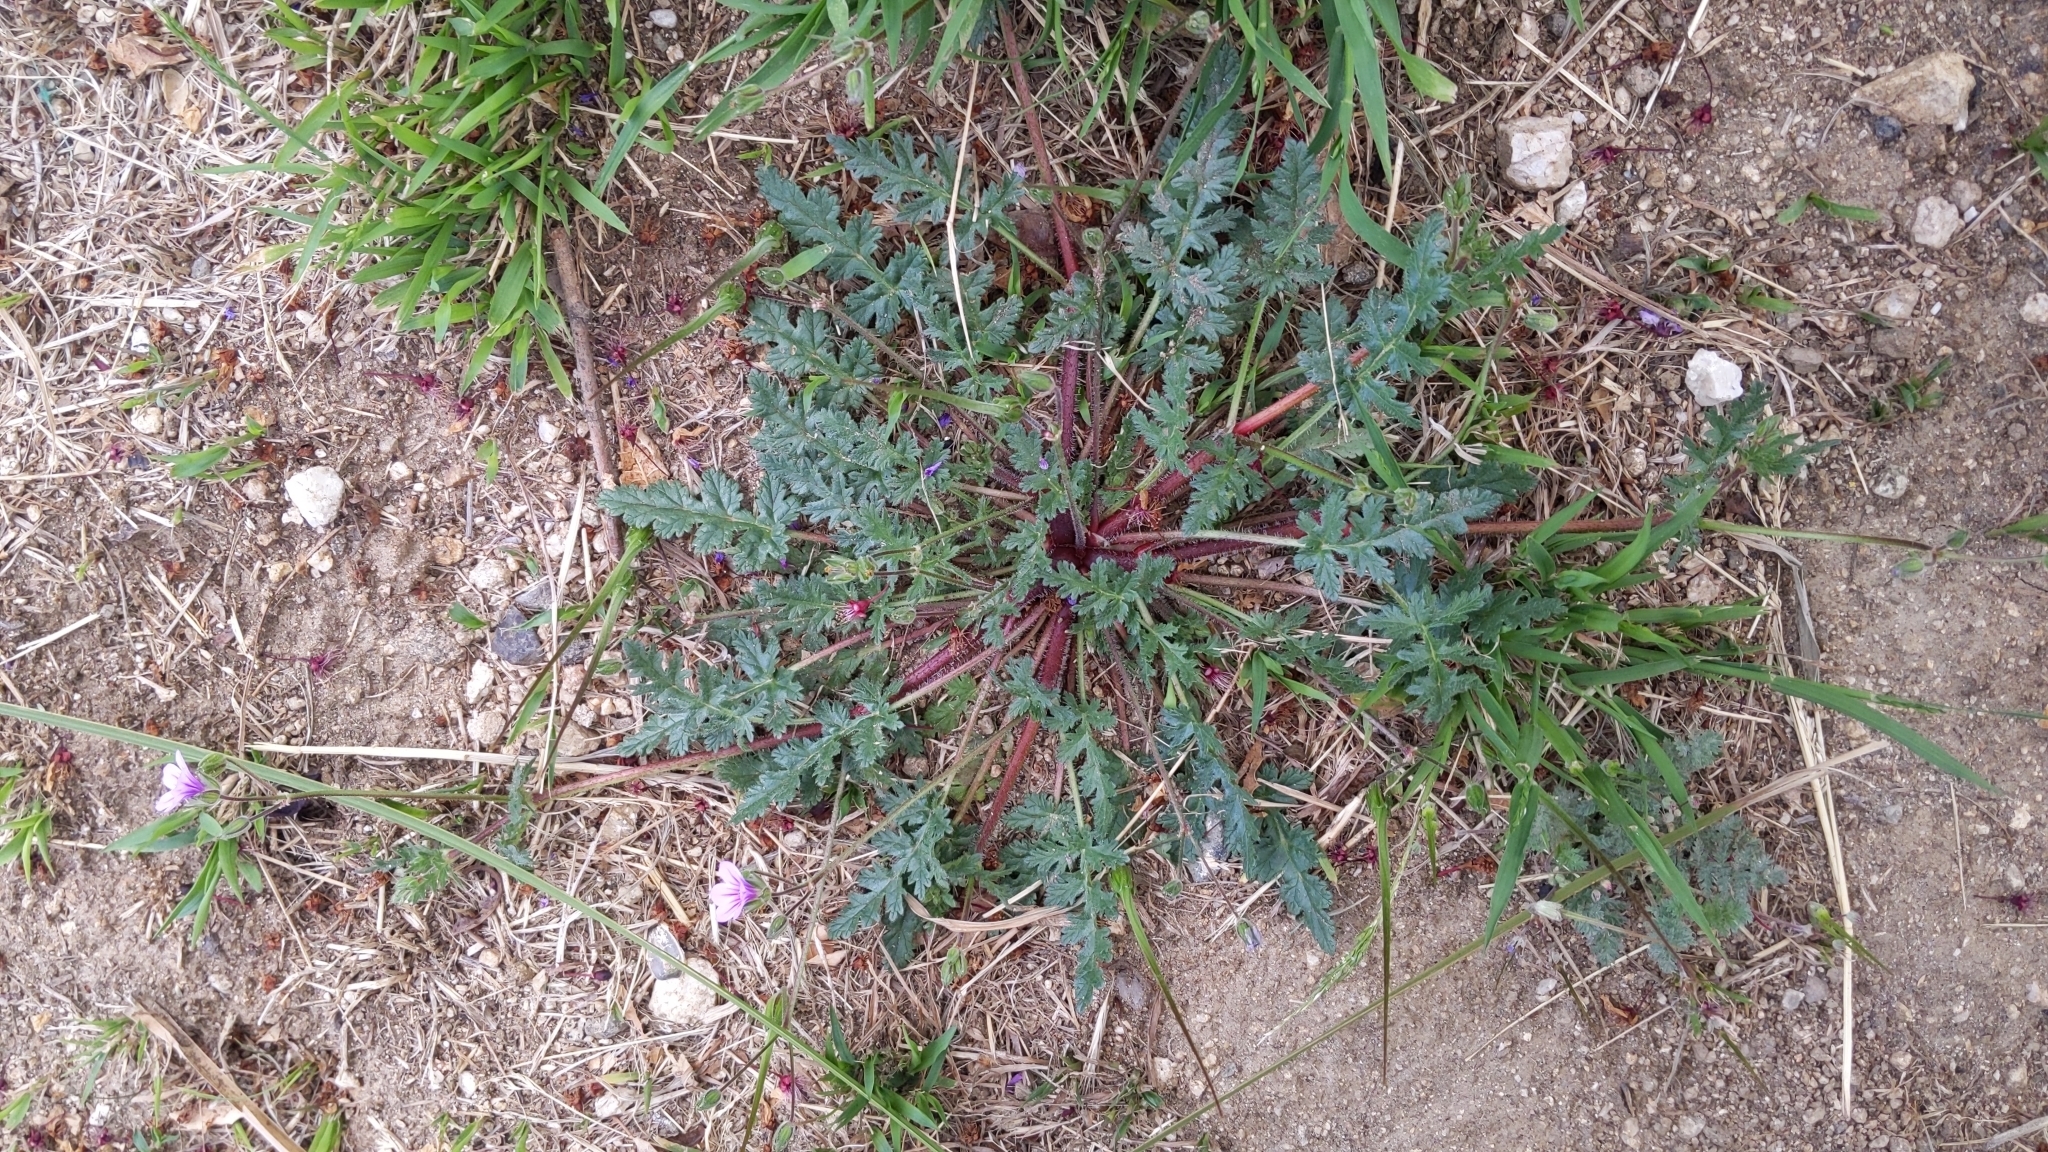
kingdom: Plantae
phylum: Tracheophyta
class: Magnoliopsida
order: Geraniales
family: Geraniaceae
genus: Erodium
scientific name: Erodium botrys
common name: Mediterranean stork's-bill
